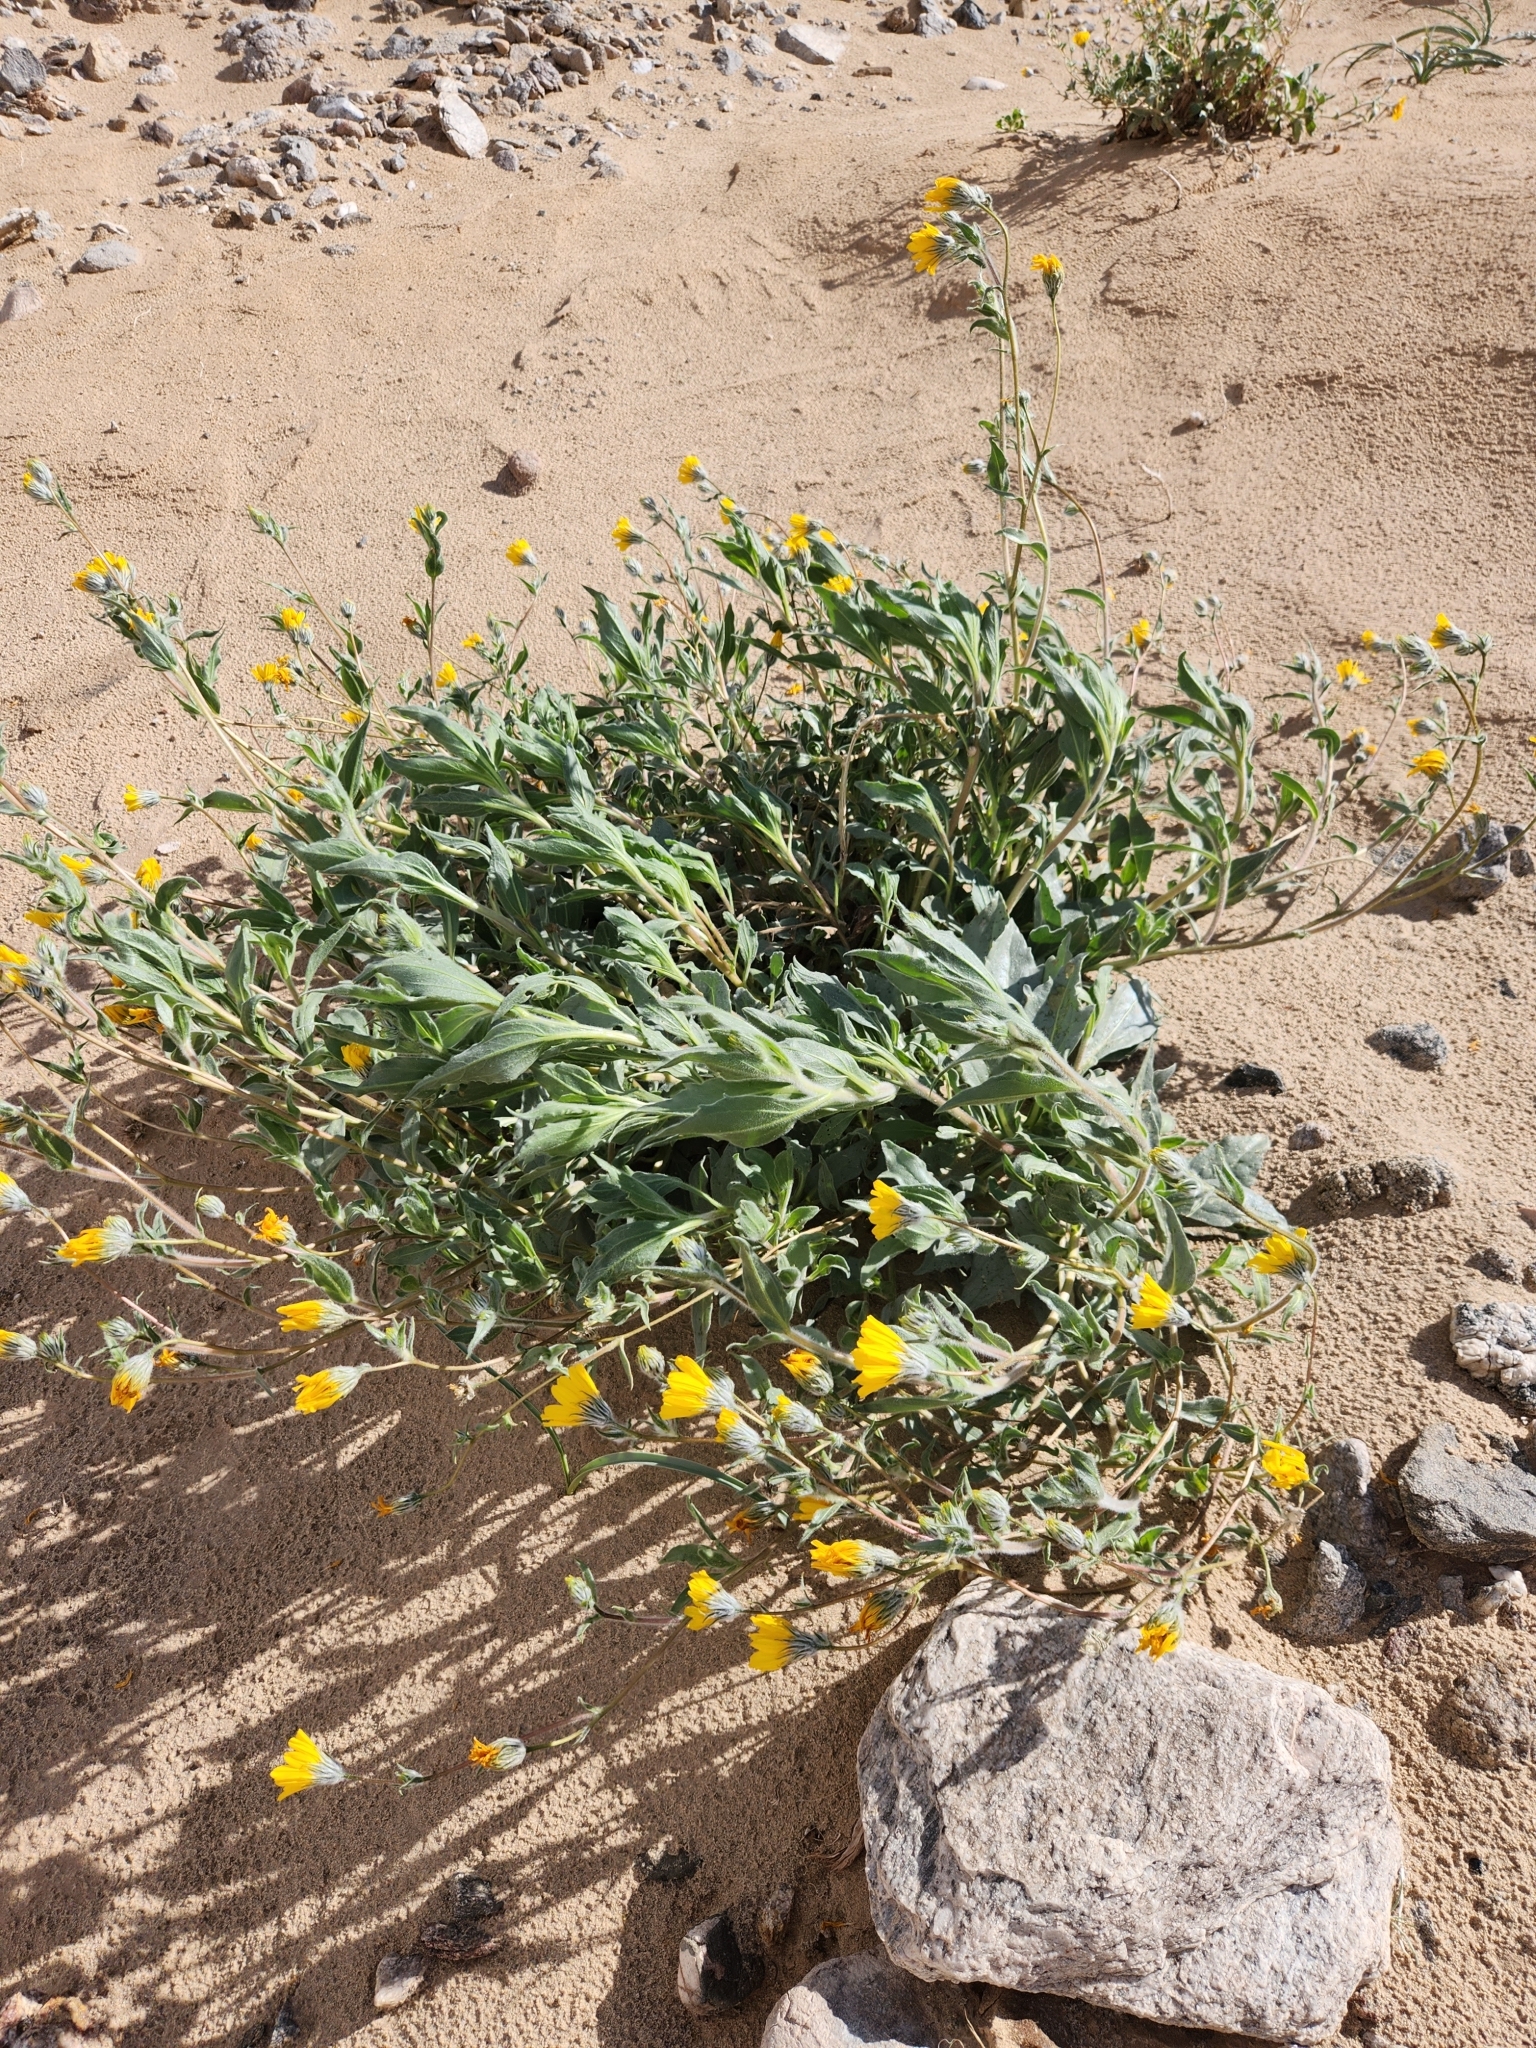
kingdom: Plantae
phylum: Tracheophyta
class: Magnoliopsida
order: Asterales
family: Asteraceae
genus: Geraea
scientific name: Geraea canescens
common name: Desert-gold
